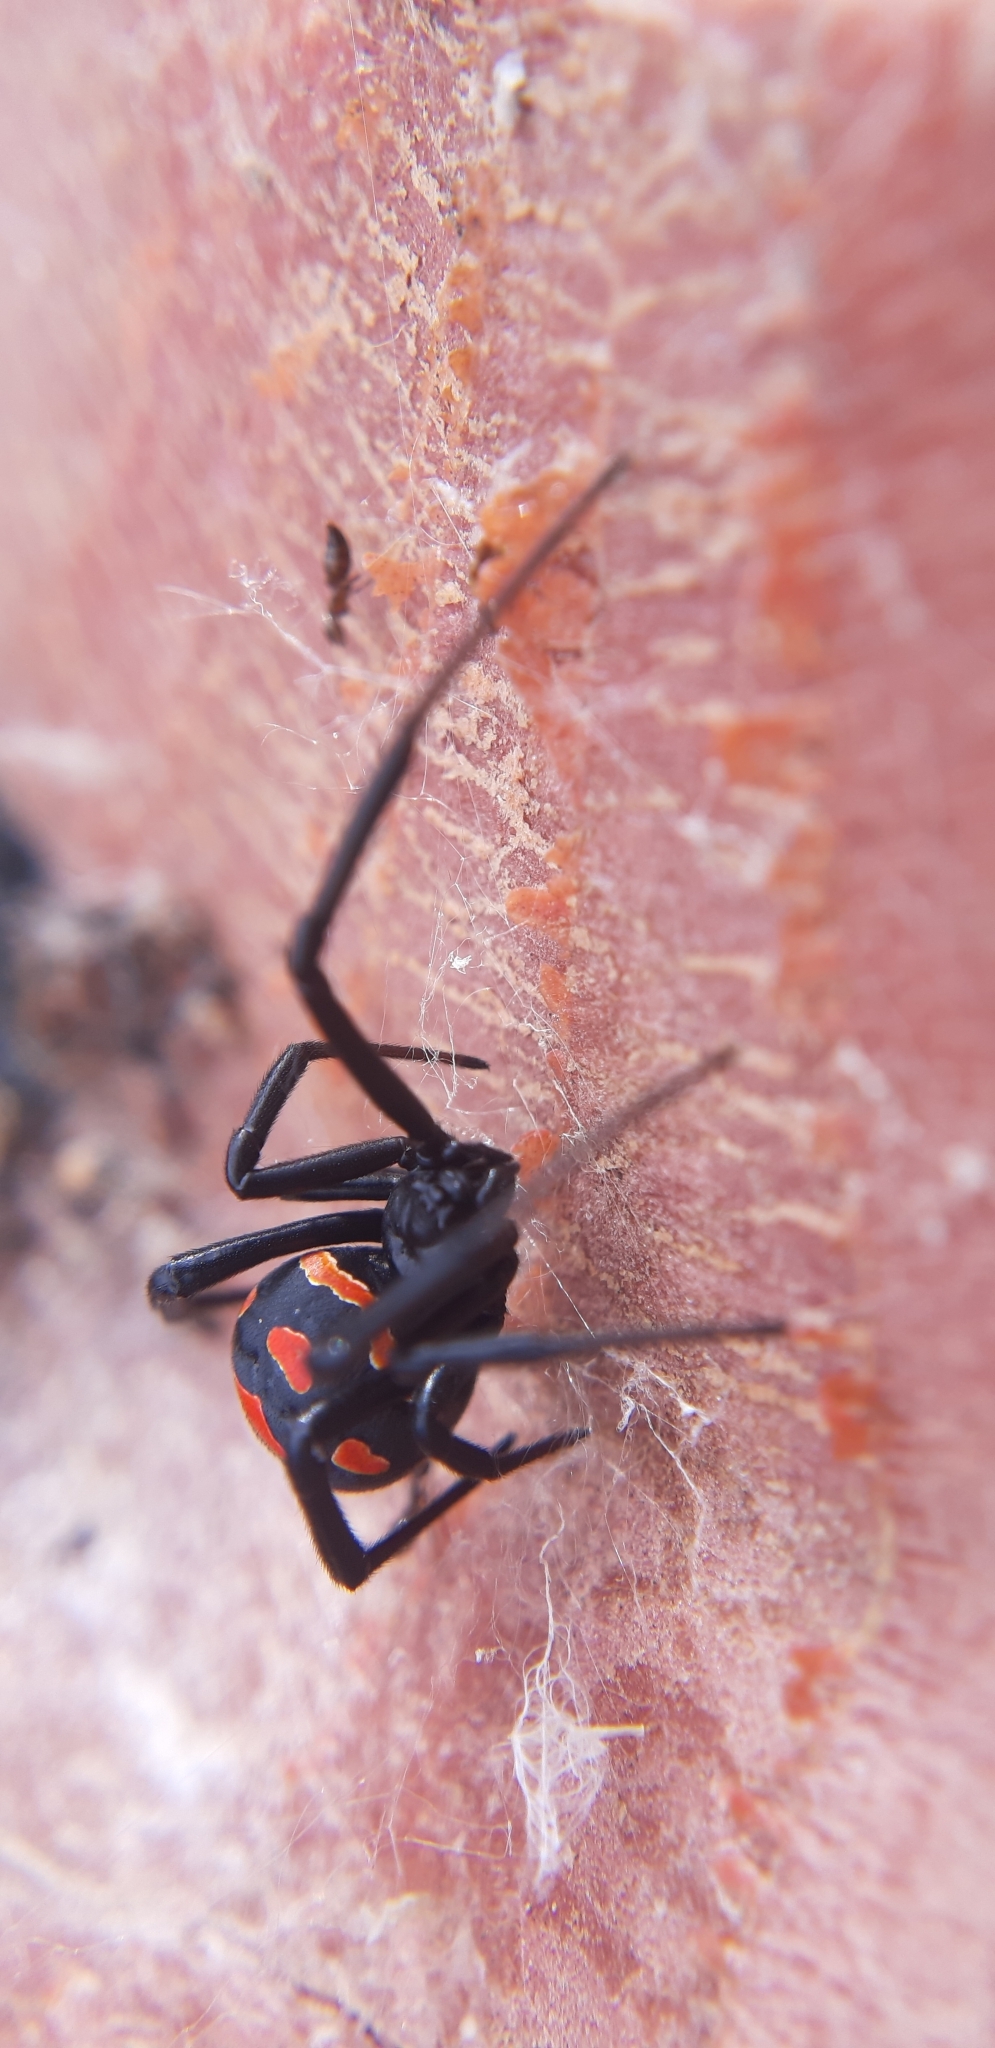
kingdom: Animalia
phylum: Arthropoda
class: Arachnida
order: Araneae
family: Theridiidae
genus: Latrodectus
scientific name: Latrodectus tredecimguttatus
